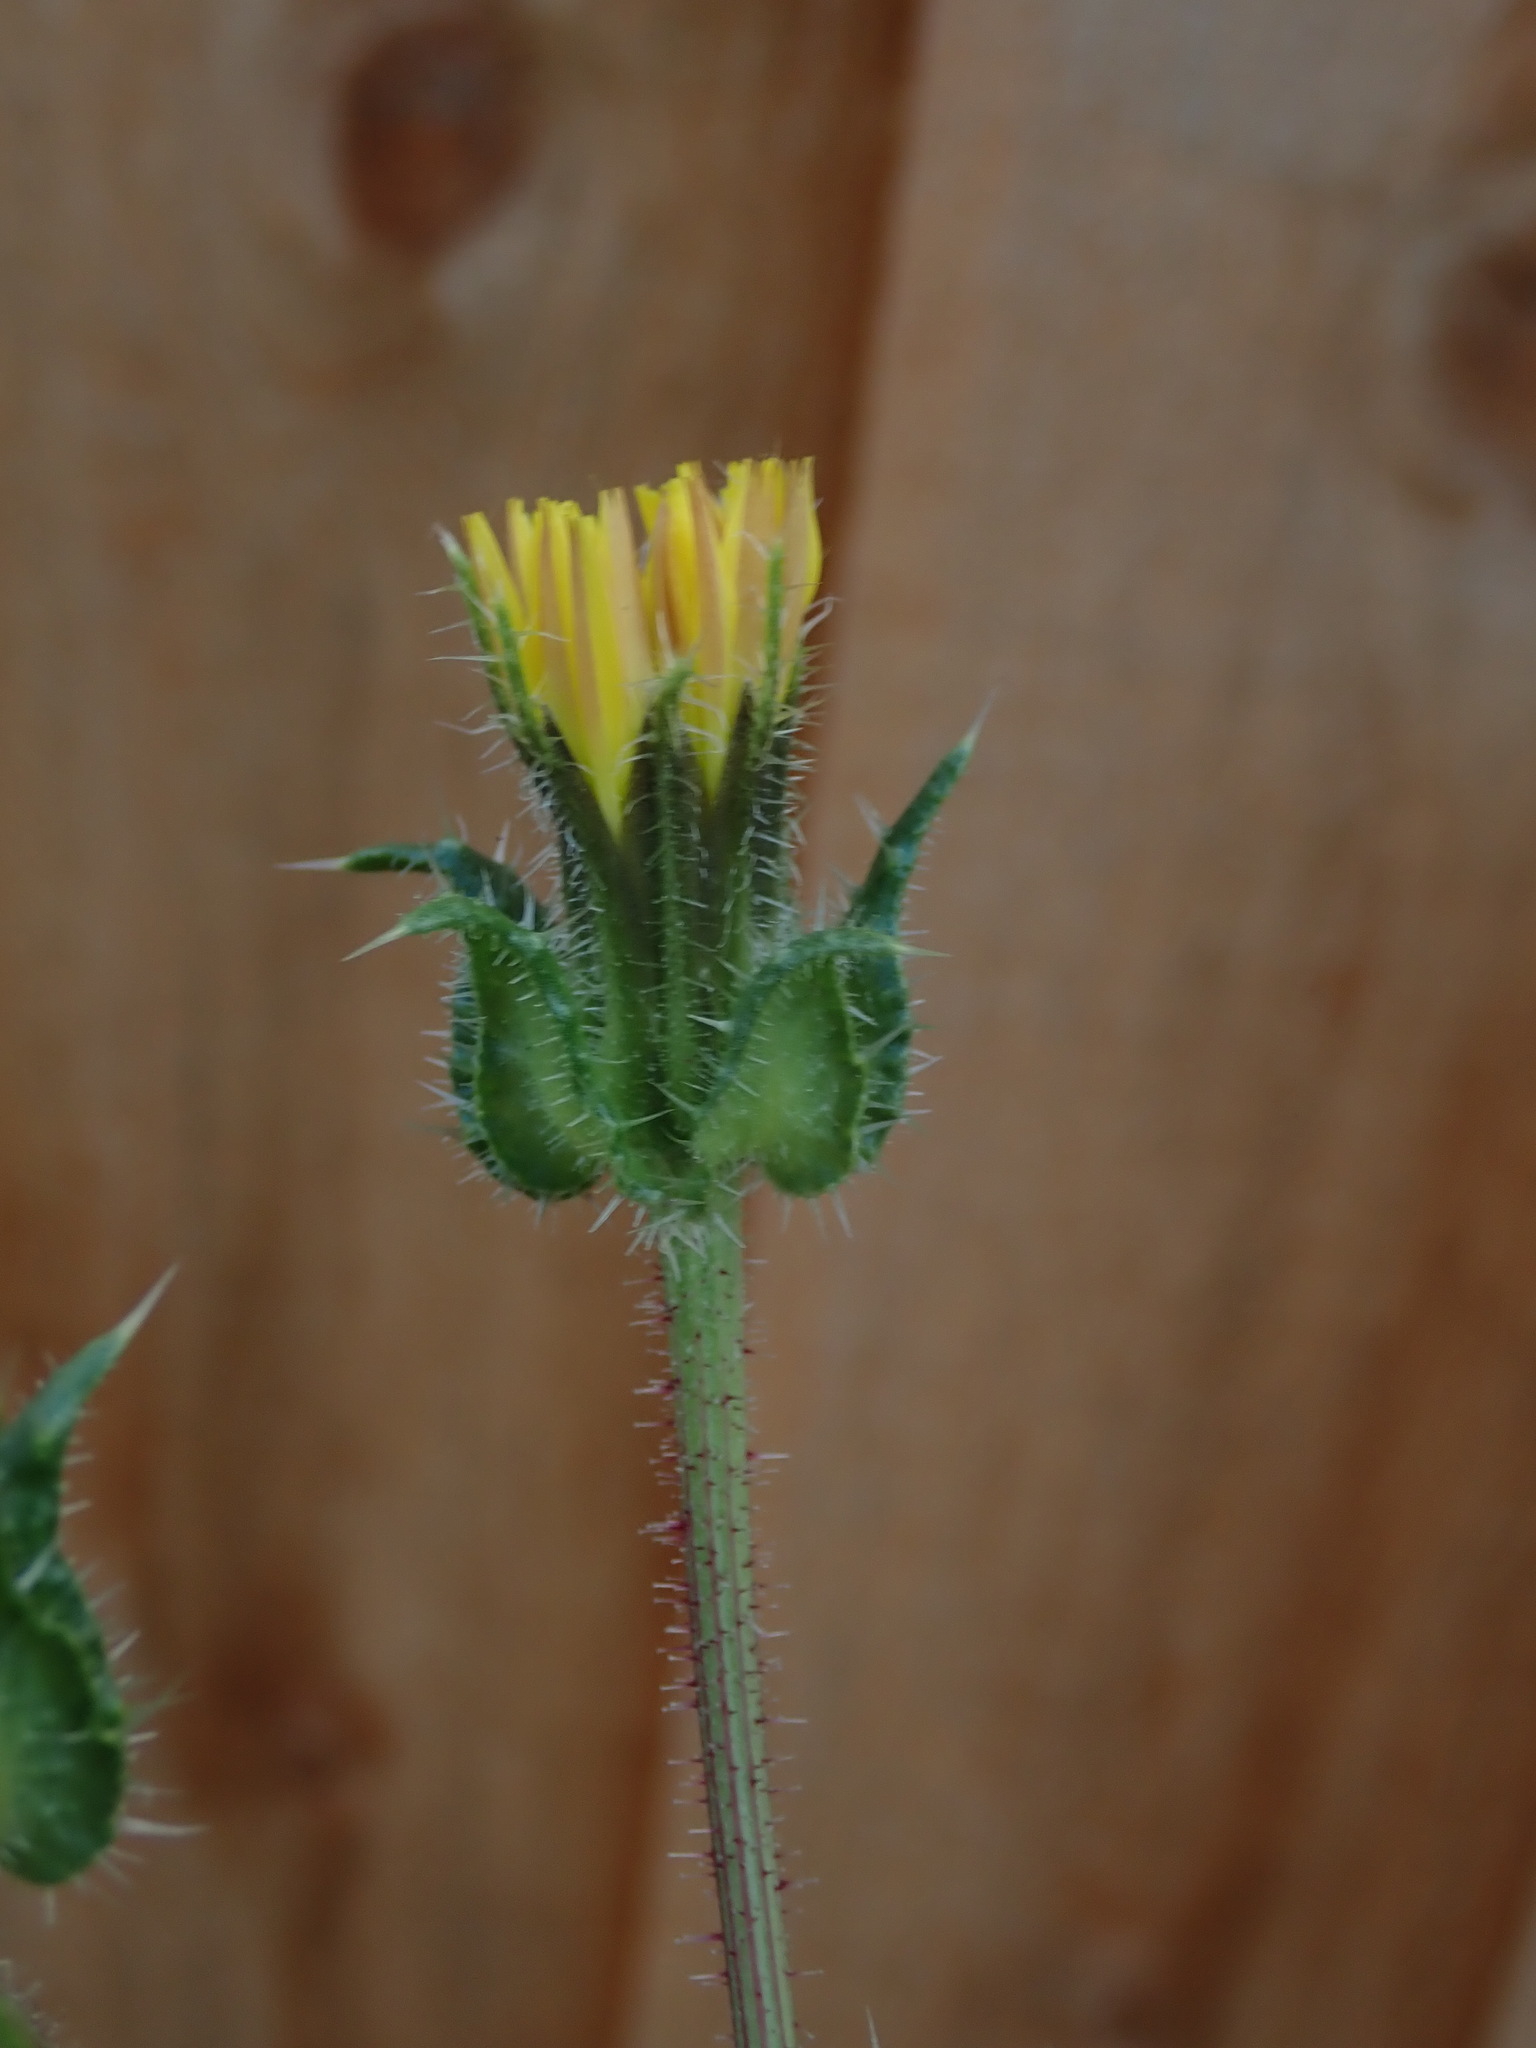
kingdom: Plantae
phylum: Tracheophyta
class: Magnoliopsida
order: Asterales
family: Asteraceae
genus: Helminthotheca
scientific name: Helminthotheca echioides
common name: Ox-tongue
